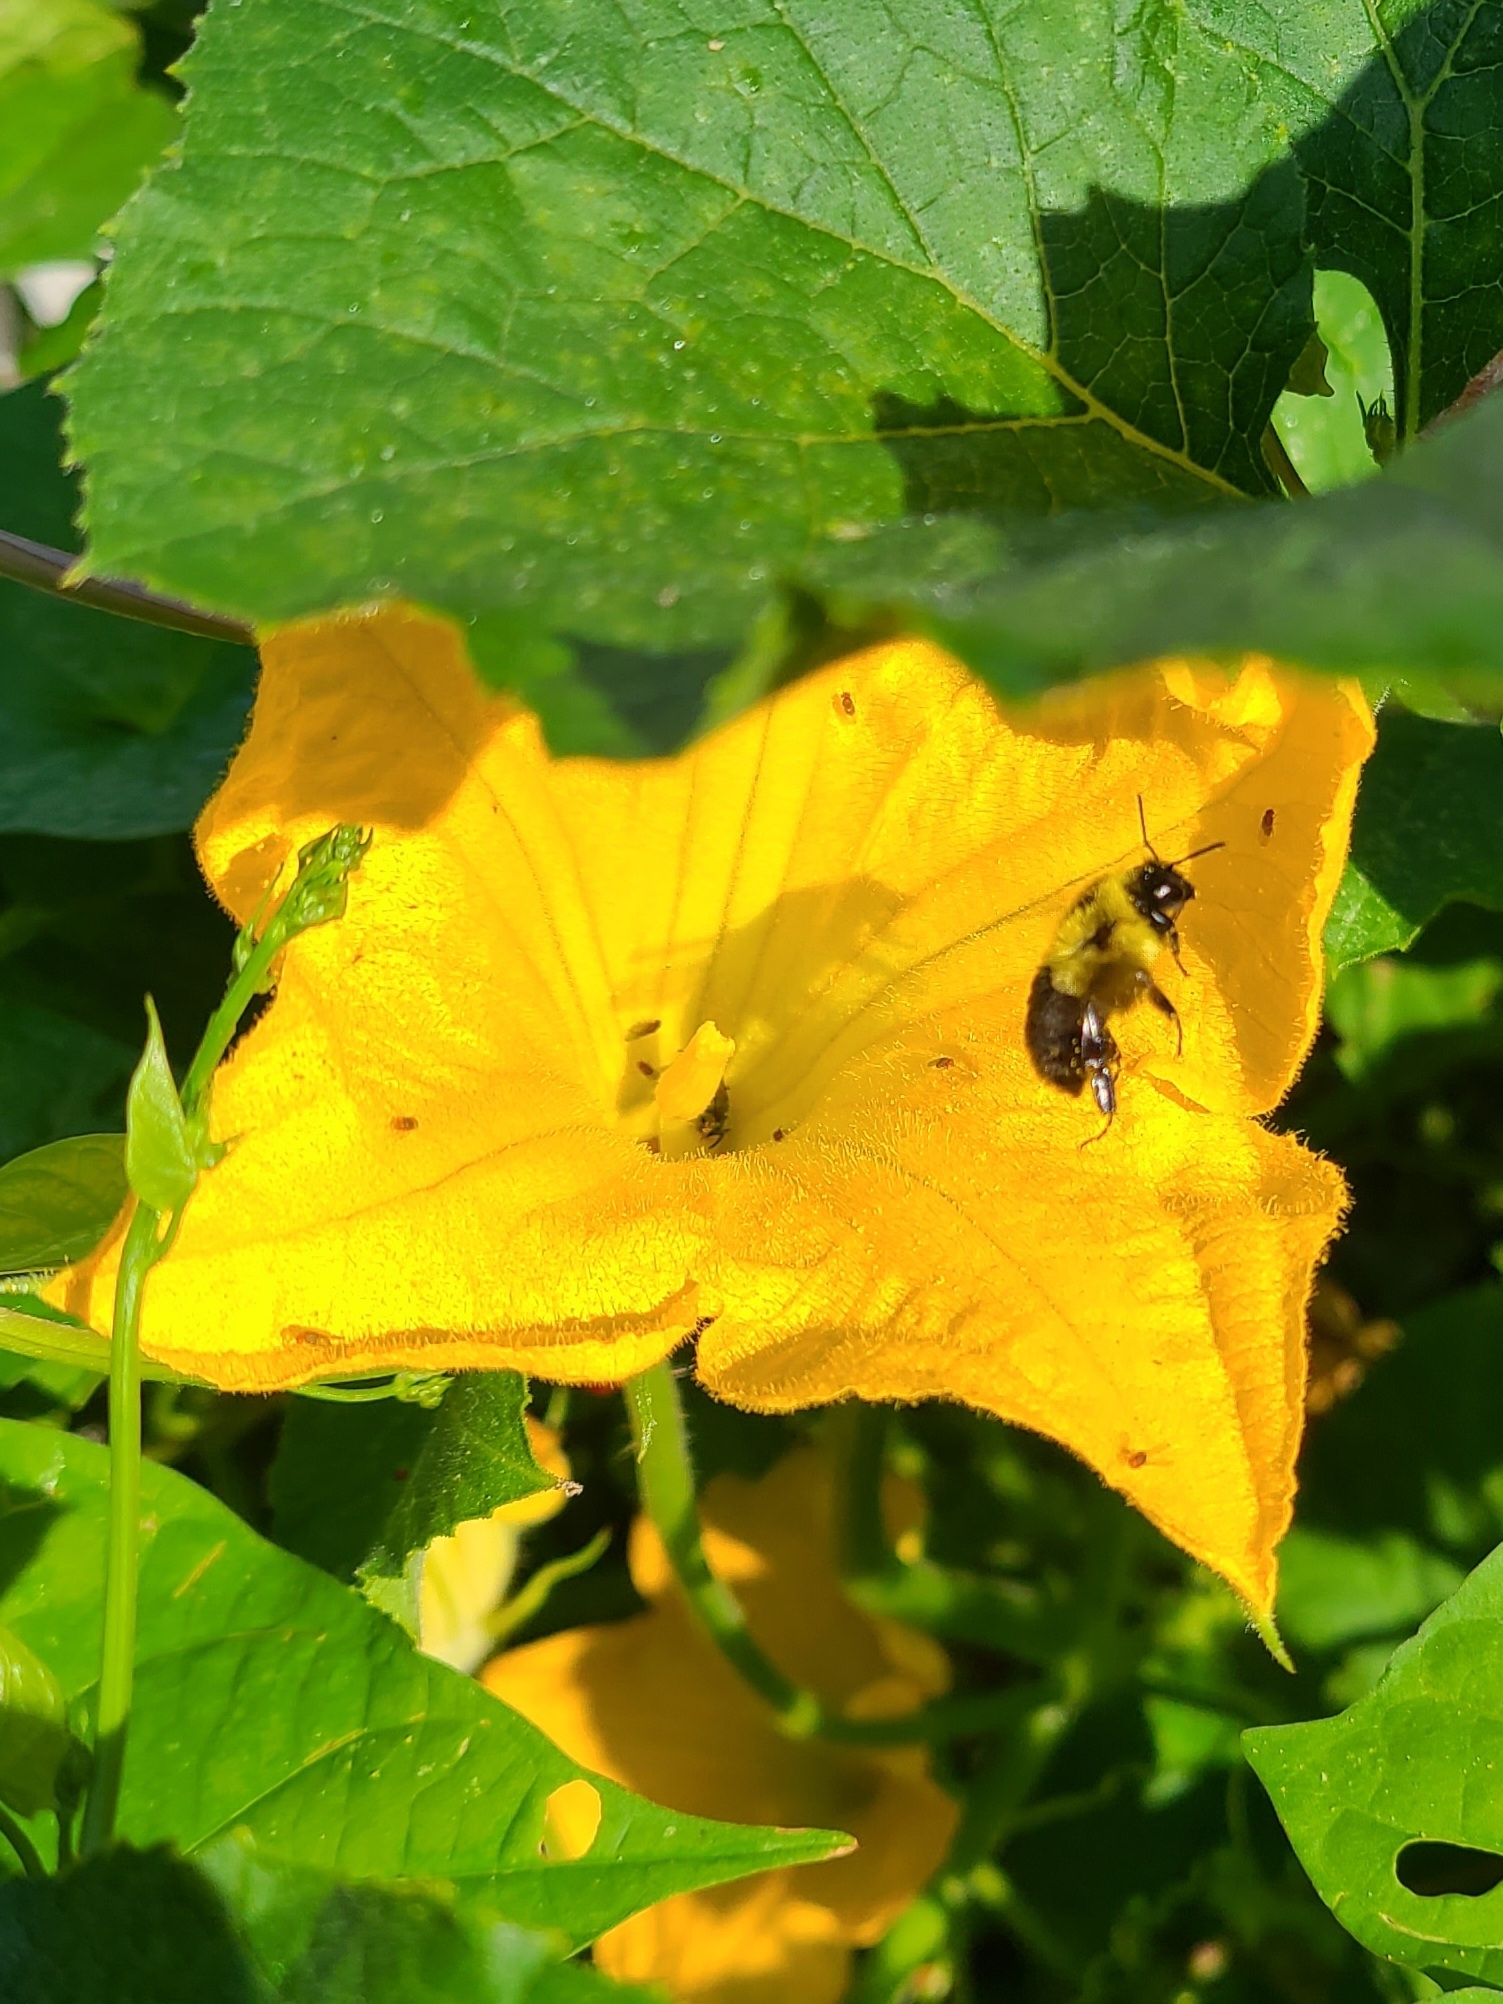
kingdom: Animalia
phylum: Arthropoda
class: Insecta
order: Hymenoptera
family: Apidae
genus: Bombus
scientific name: Bombus impatiens
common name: Common eastern bumble bee
